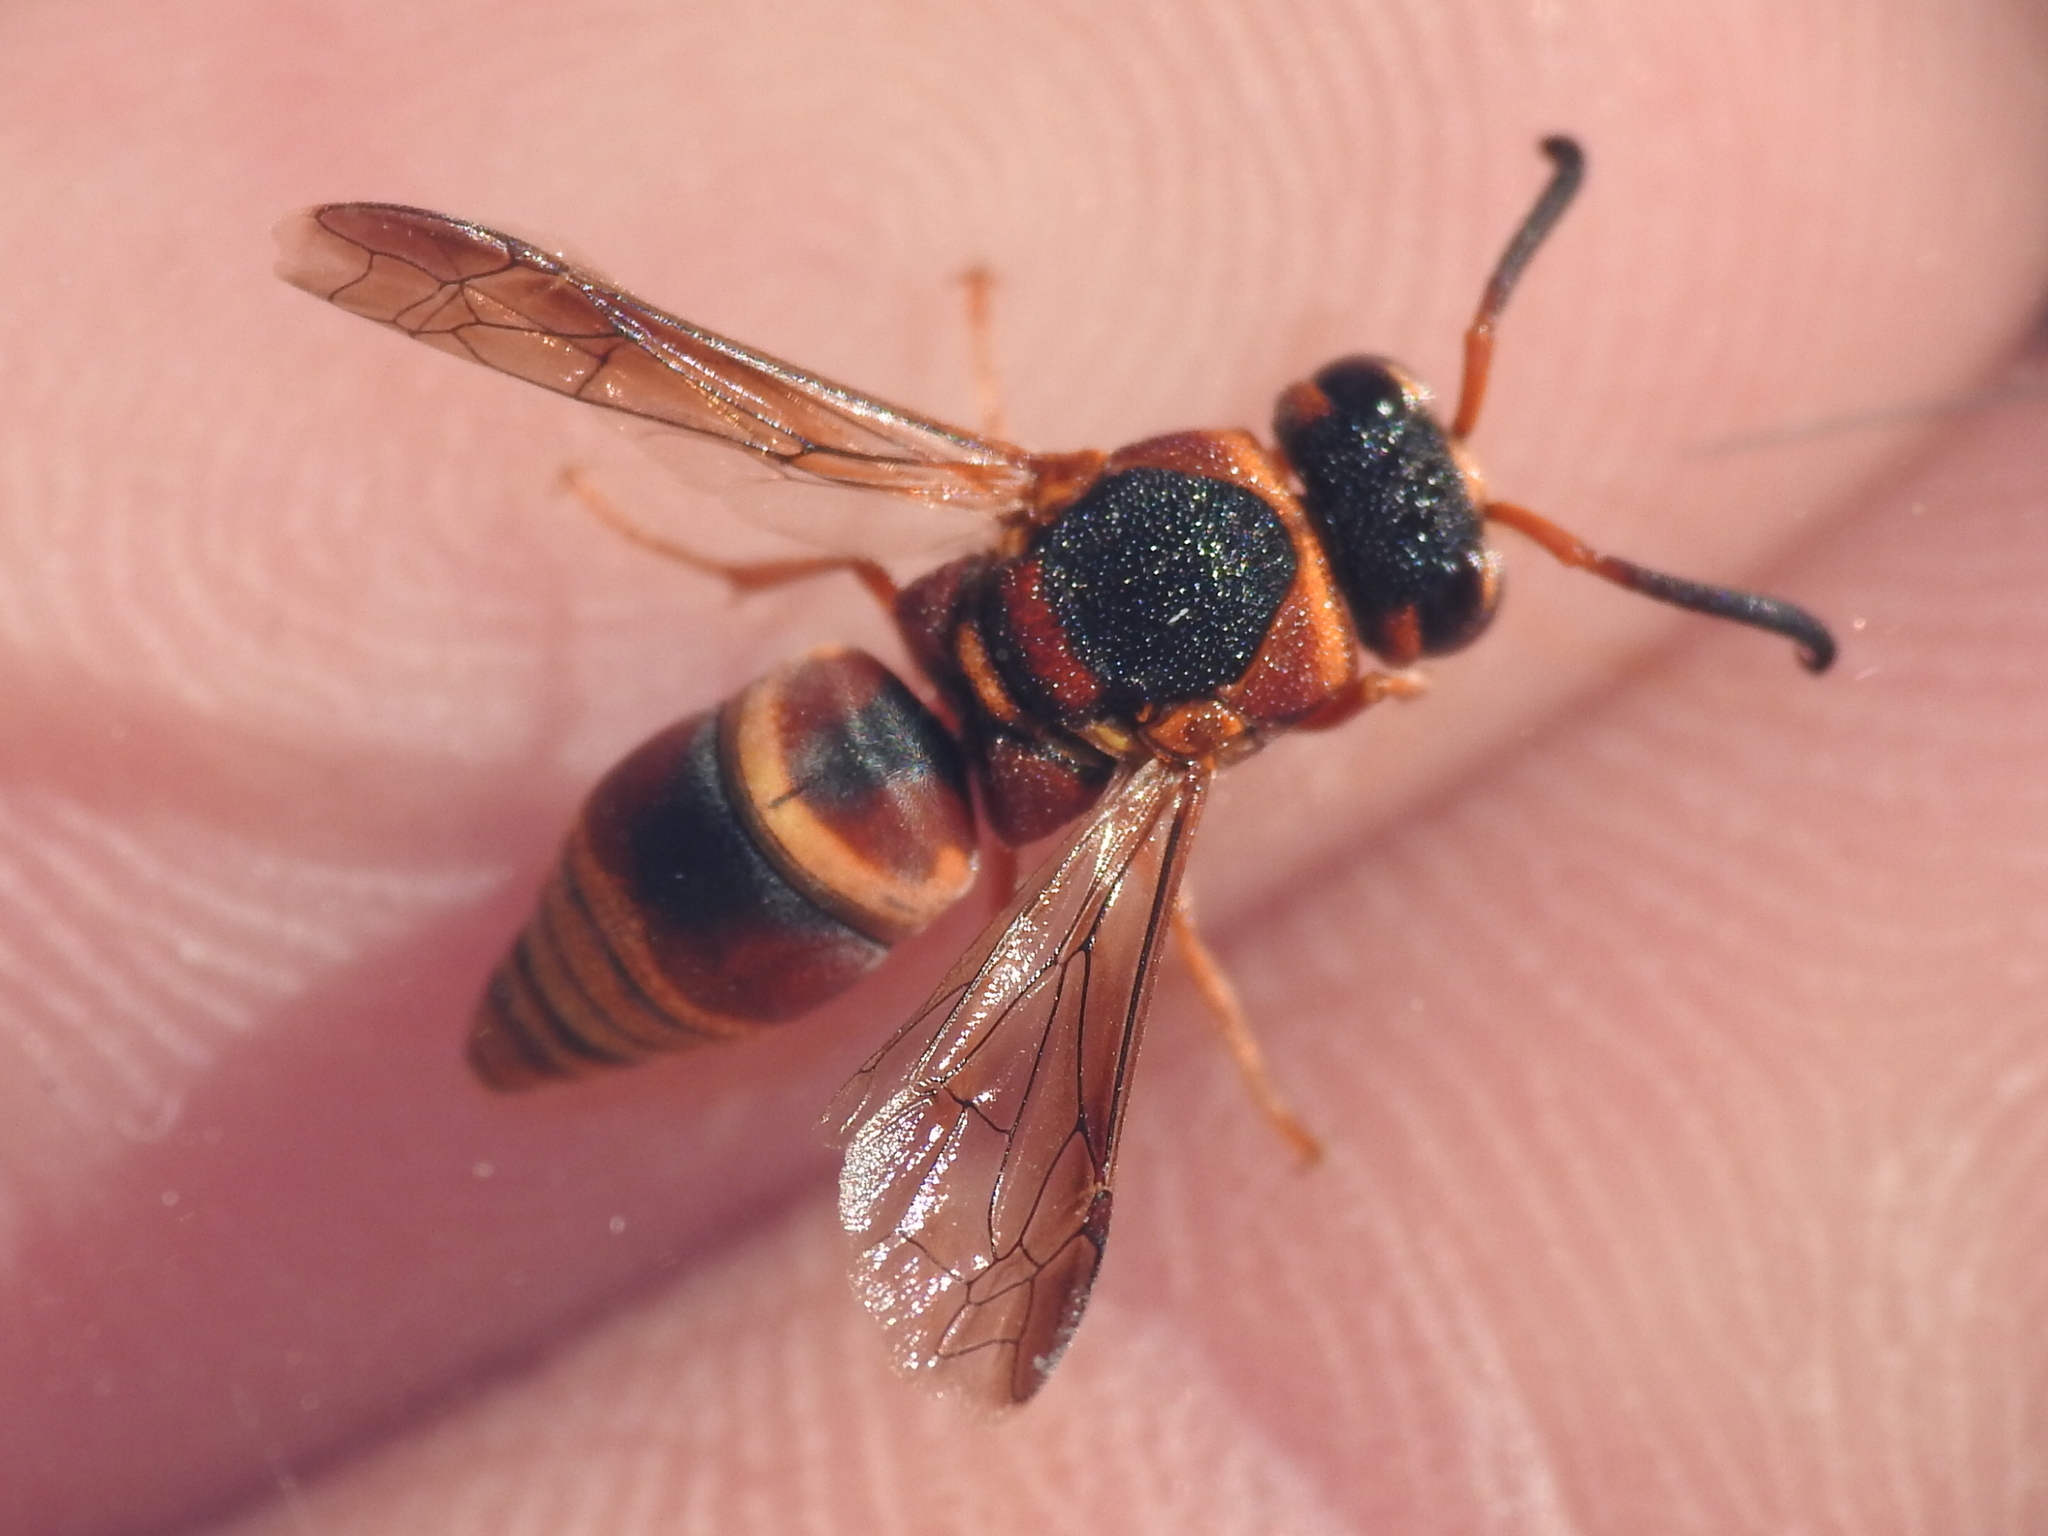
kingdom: Animalia
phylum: Arthropoda
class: Insecta
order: Hymenoptera
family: Eumenidae
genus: Euodynerus
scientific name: Euodynerus hidalgo
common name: Wasp
